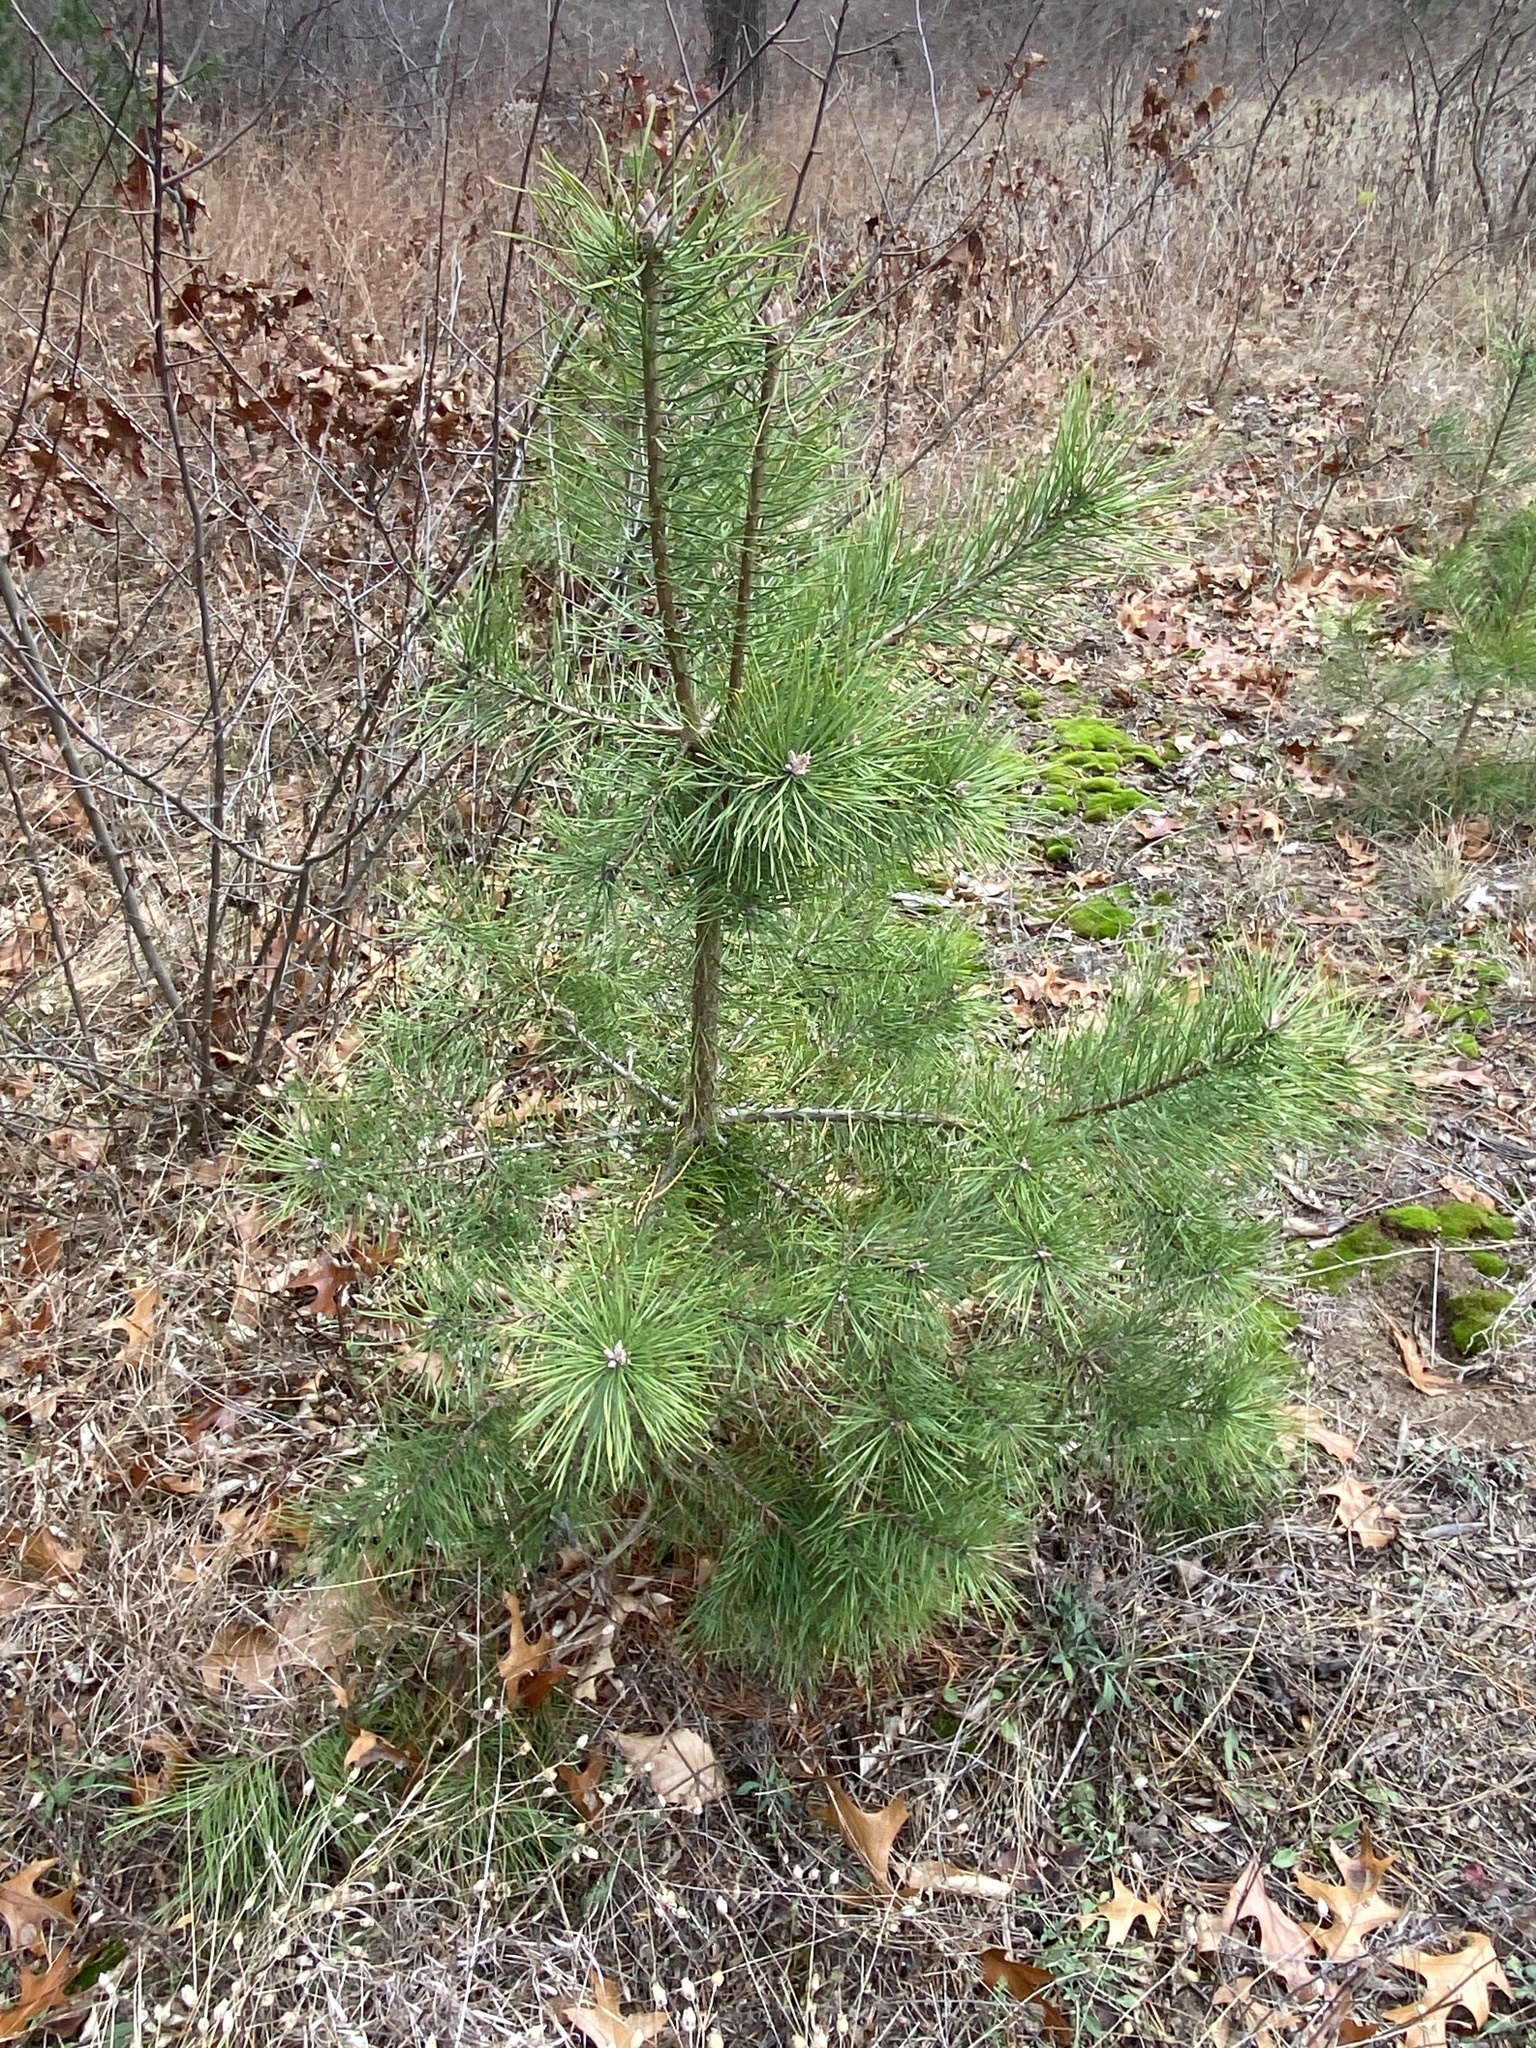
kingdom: Plantae
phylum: Tracheophyta
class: Pinopsida
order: Pinales
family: Pinaceae
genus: Pinus
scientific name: Pinus sylvestris
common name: Scots pine
